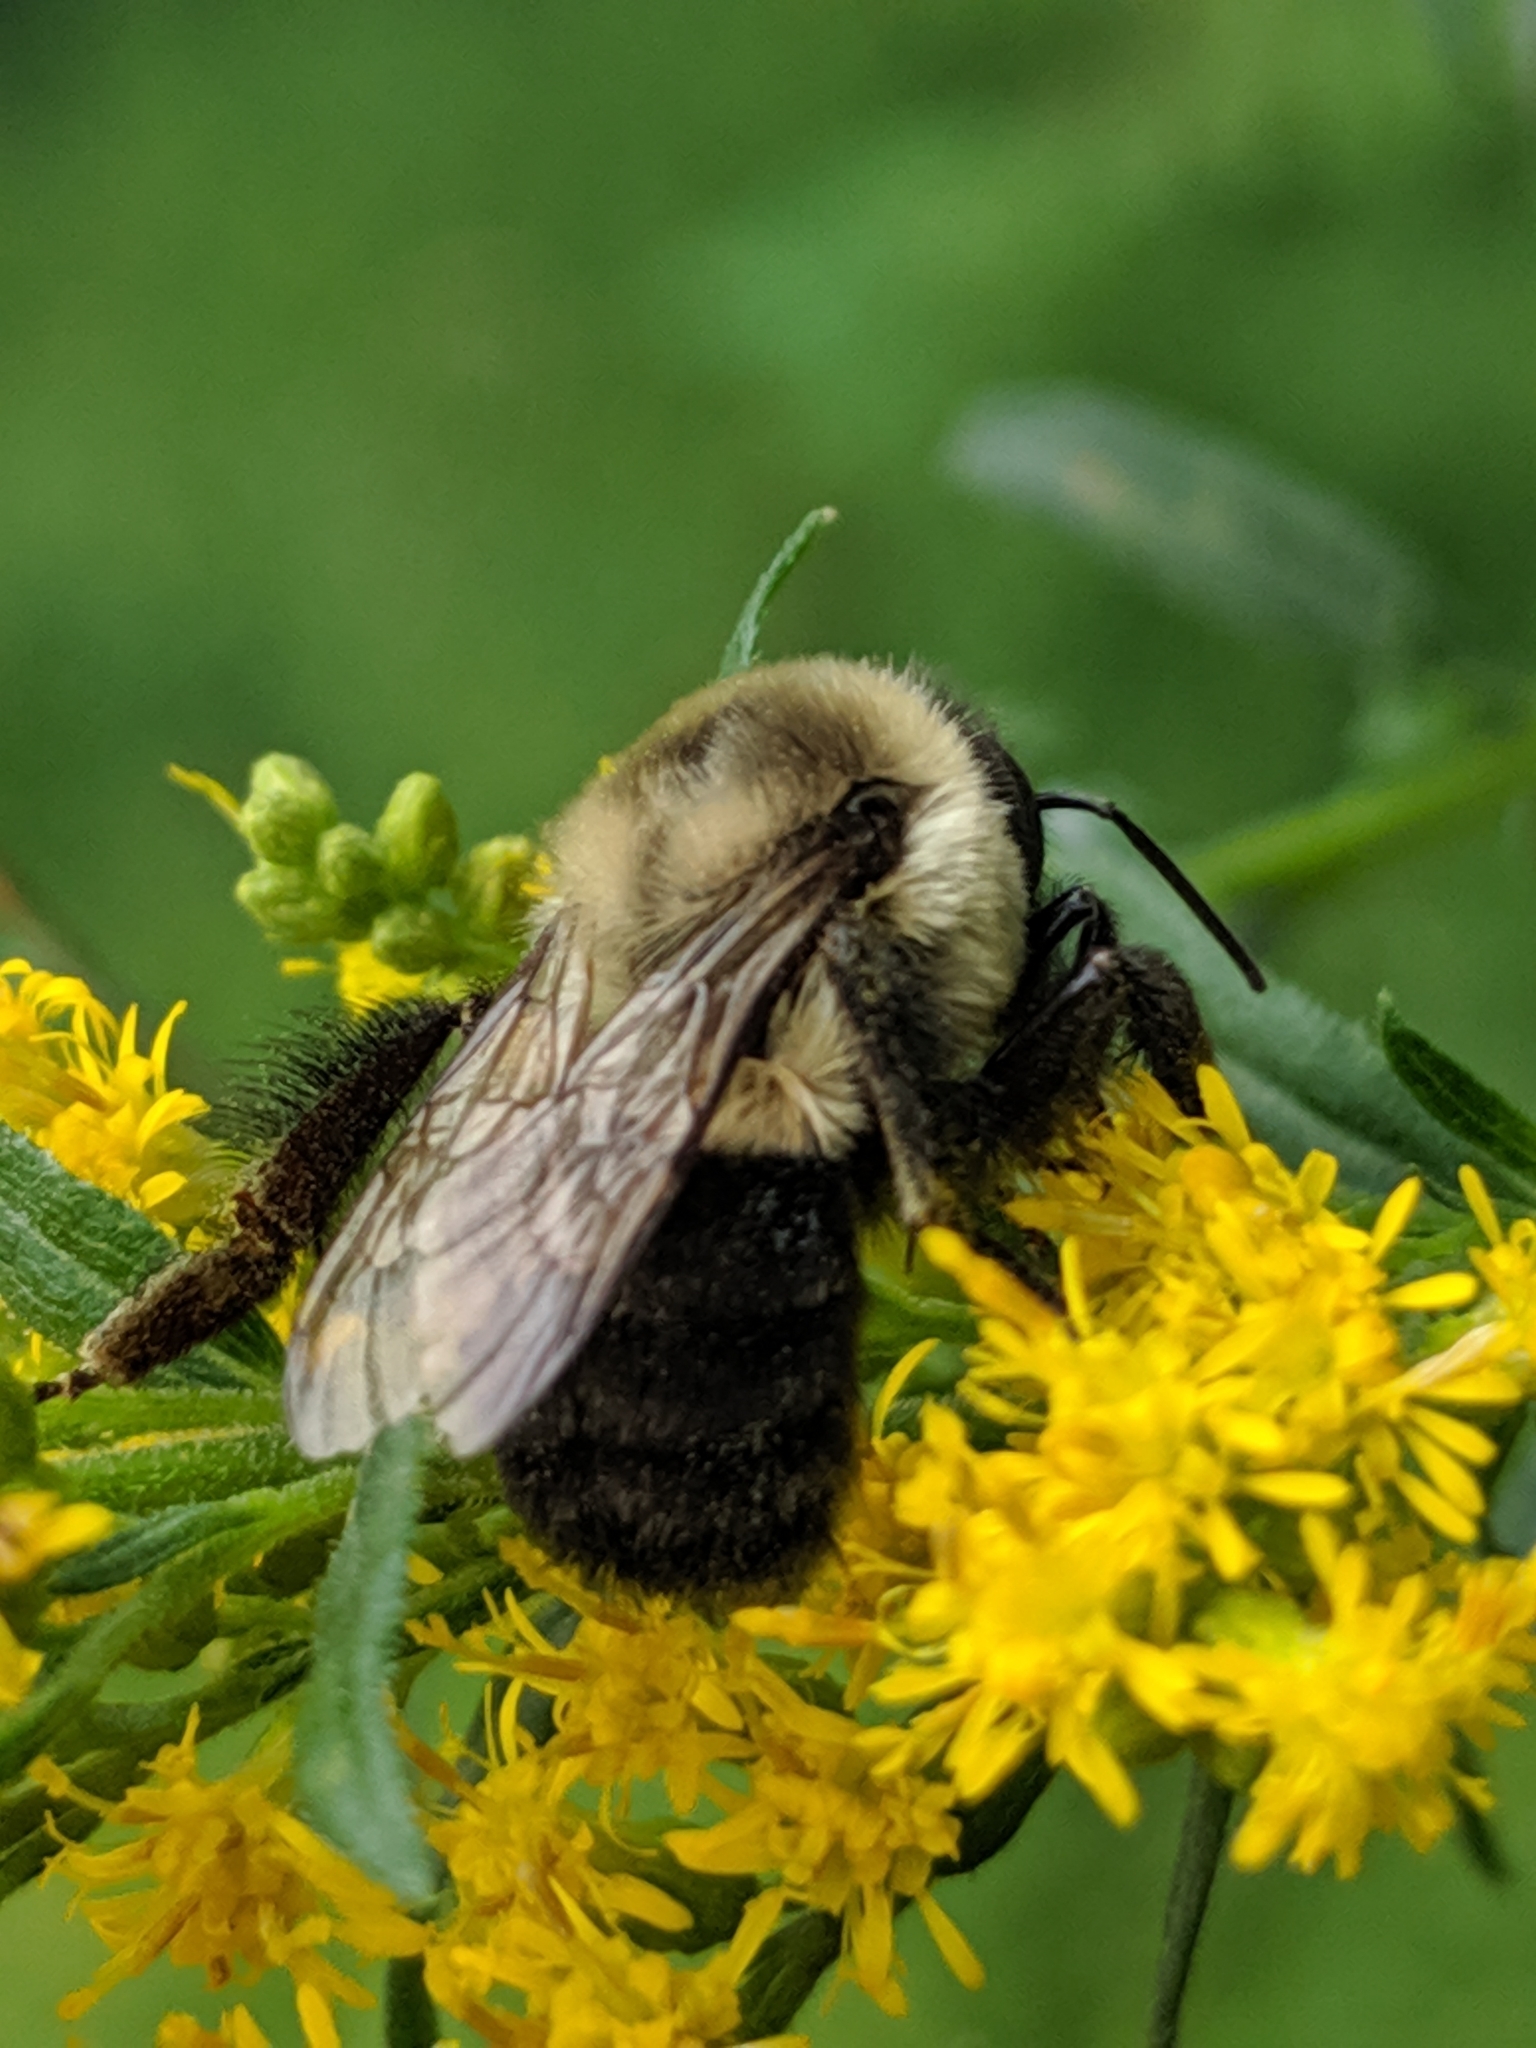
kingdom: Animalia
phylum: Arthropoda
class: Insecta
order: Hymenoptera
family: Apidae
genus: Bombus
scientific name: Bombus impatiens
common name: Common eastern bumble bee
